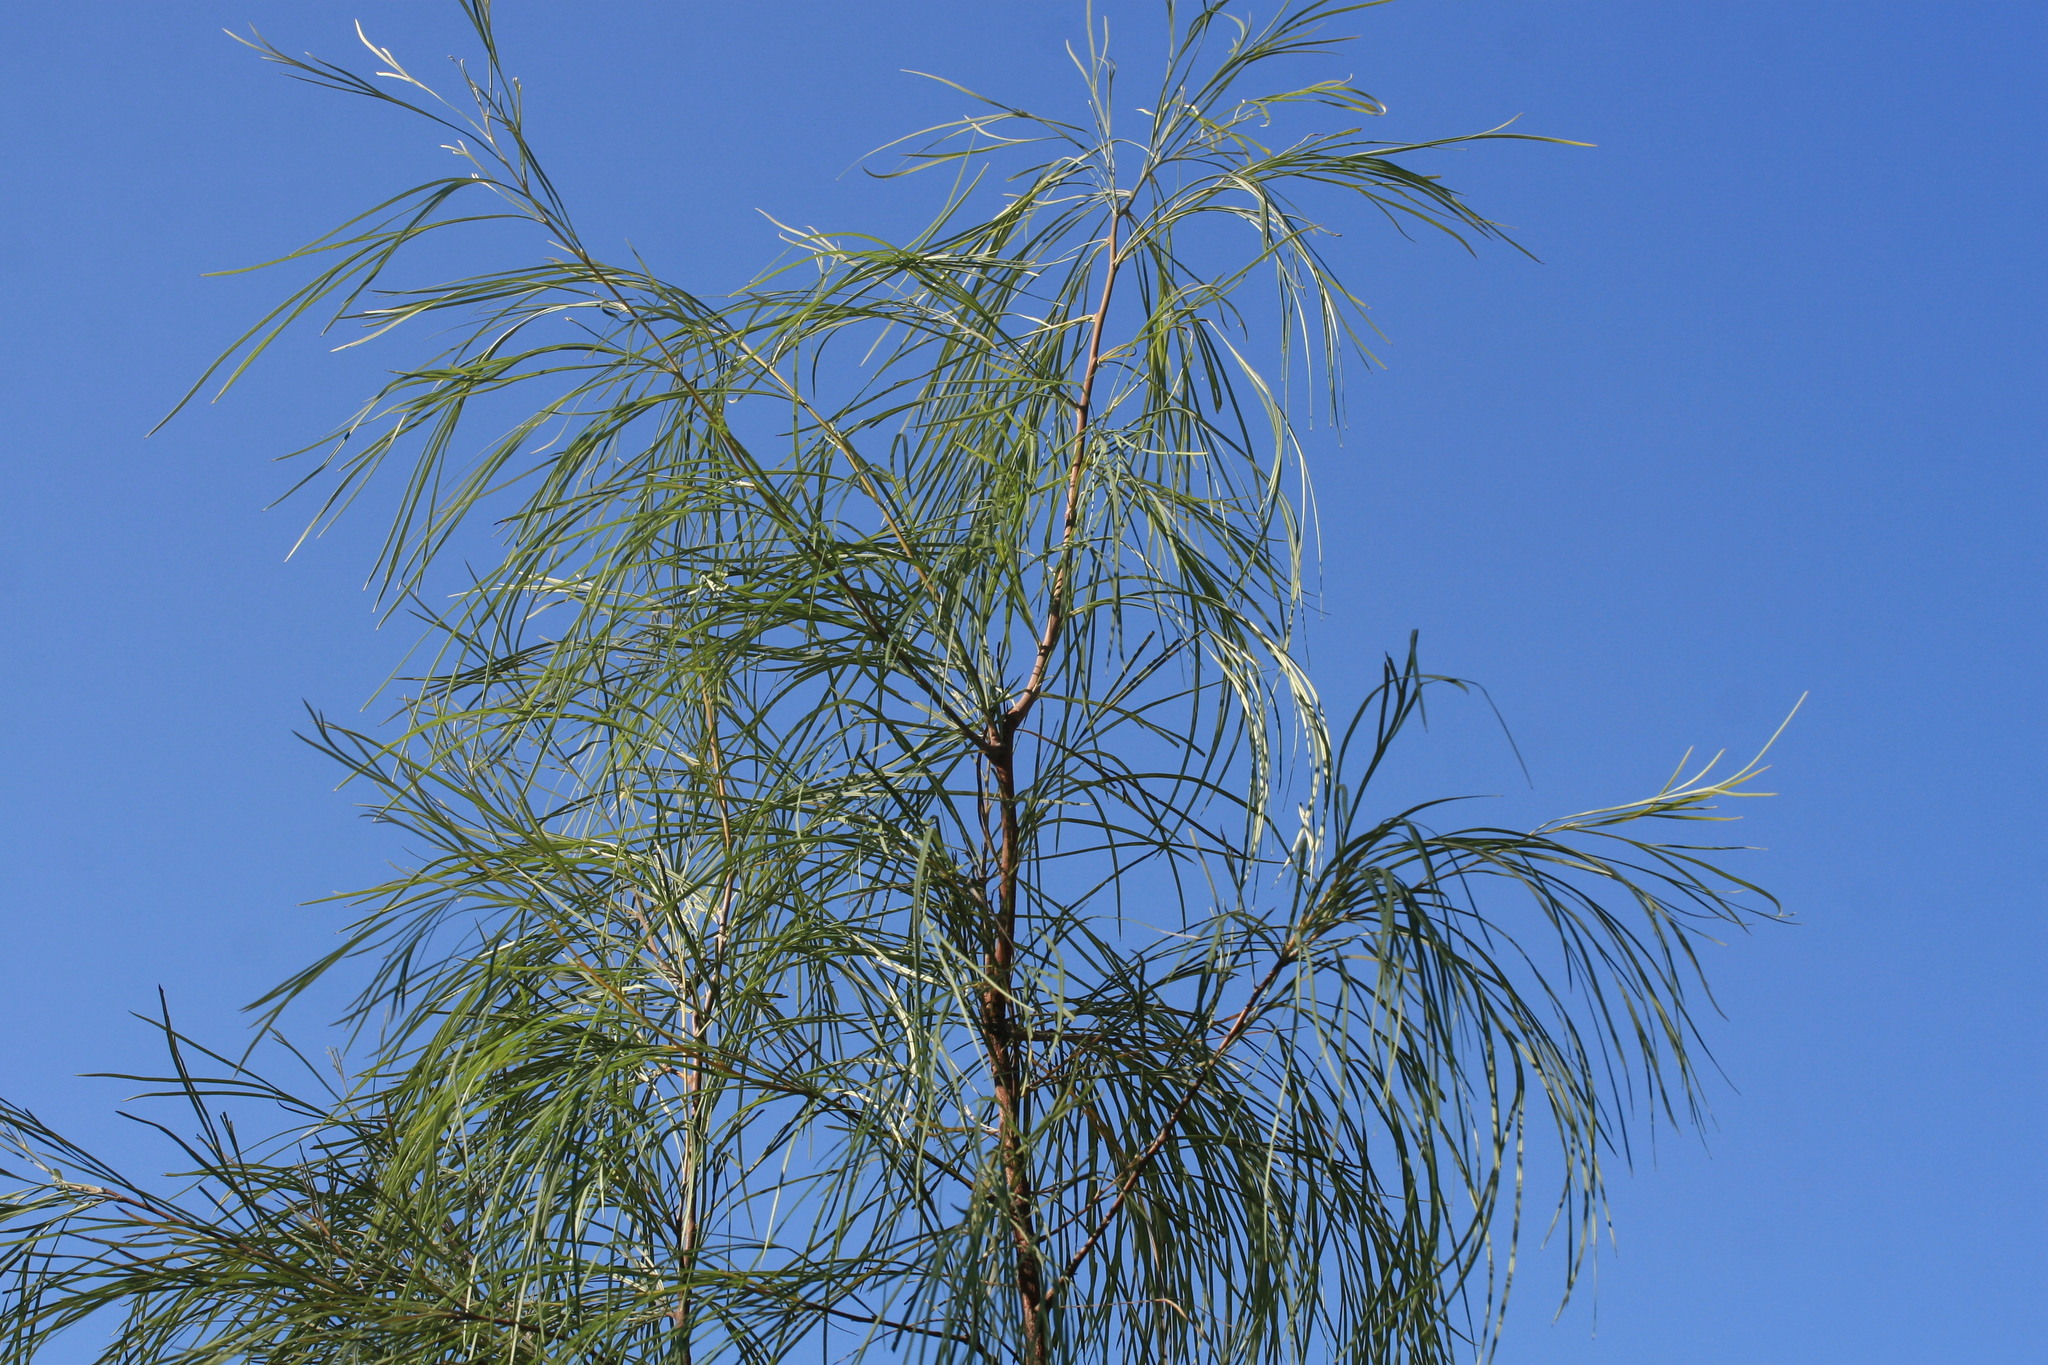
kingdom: Plantae
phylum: Tracheophyta
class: Magnoliopsida
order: Proteales
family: Proteaceae
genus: Grevillea
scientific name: Grevillea parallela
